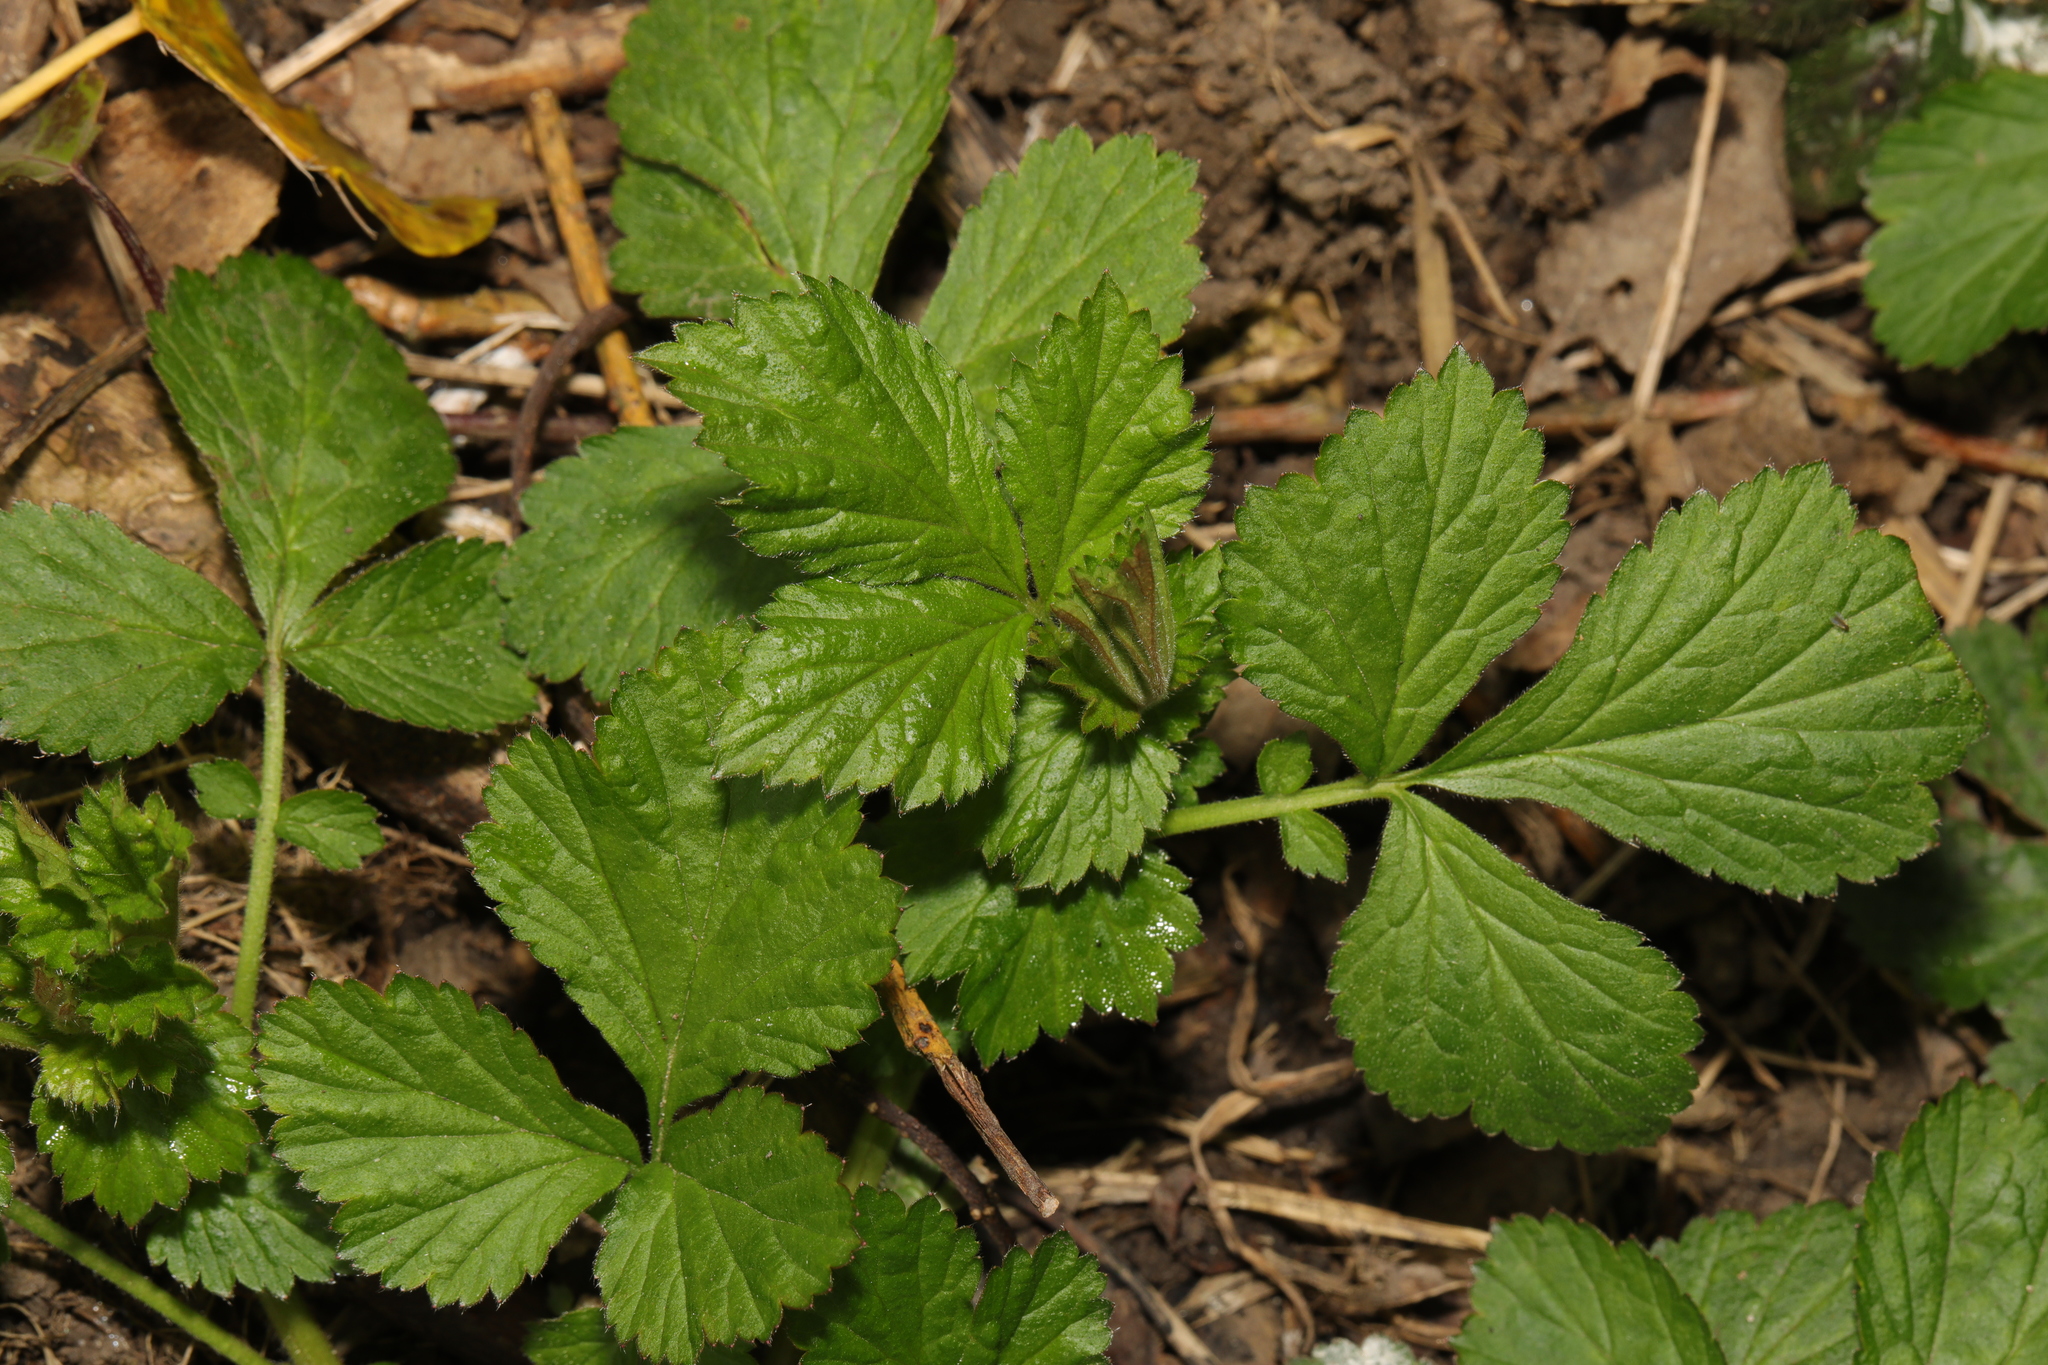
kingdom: Plantae
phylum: Tracheophyta
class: Magnoliopsida
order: Rosales
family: Rosaceae
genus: Geum
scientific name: Geum urbanum
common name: Wood avens
